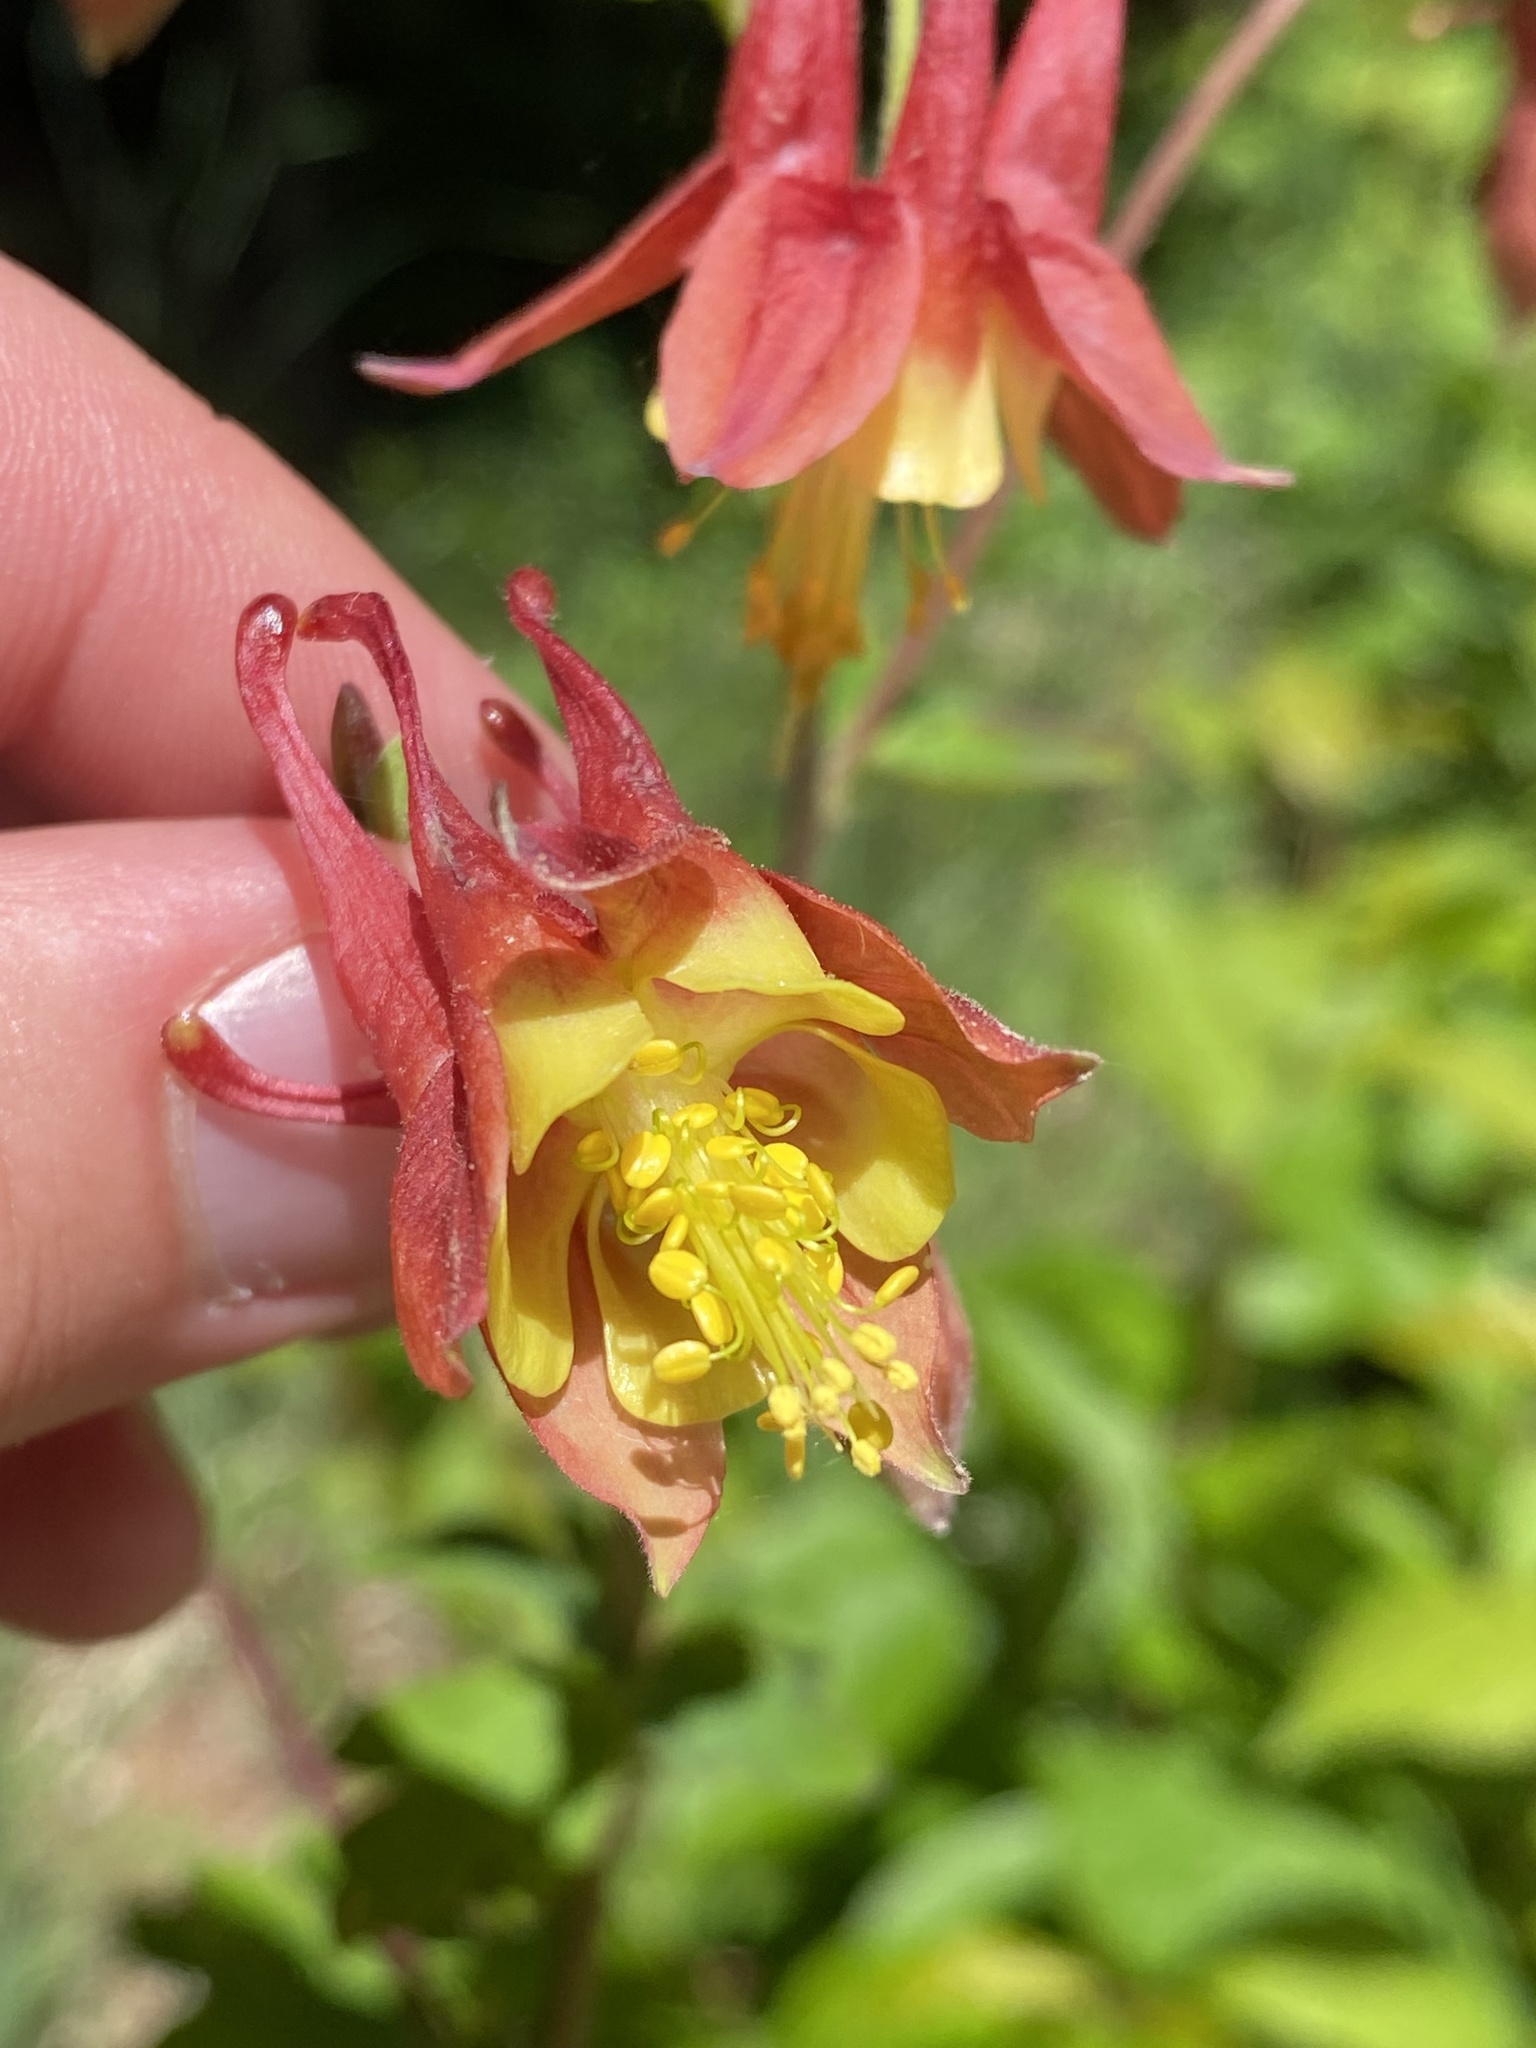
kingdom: Plantae
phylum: Tracheophyta
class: Magnoliopsida
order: Ranunculales
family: Ranunculaceae
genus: Aquilegia
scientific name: Aquilegia canadensis
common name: American columbine
